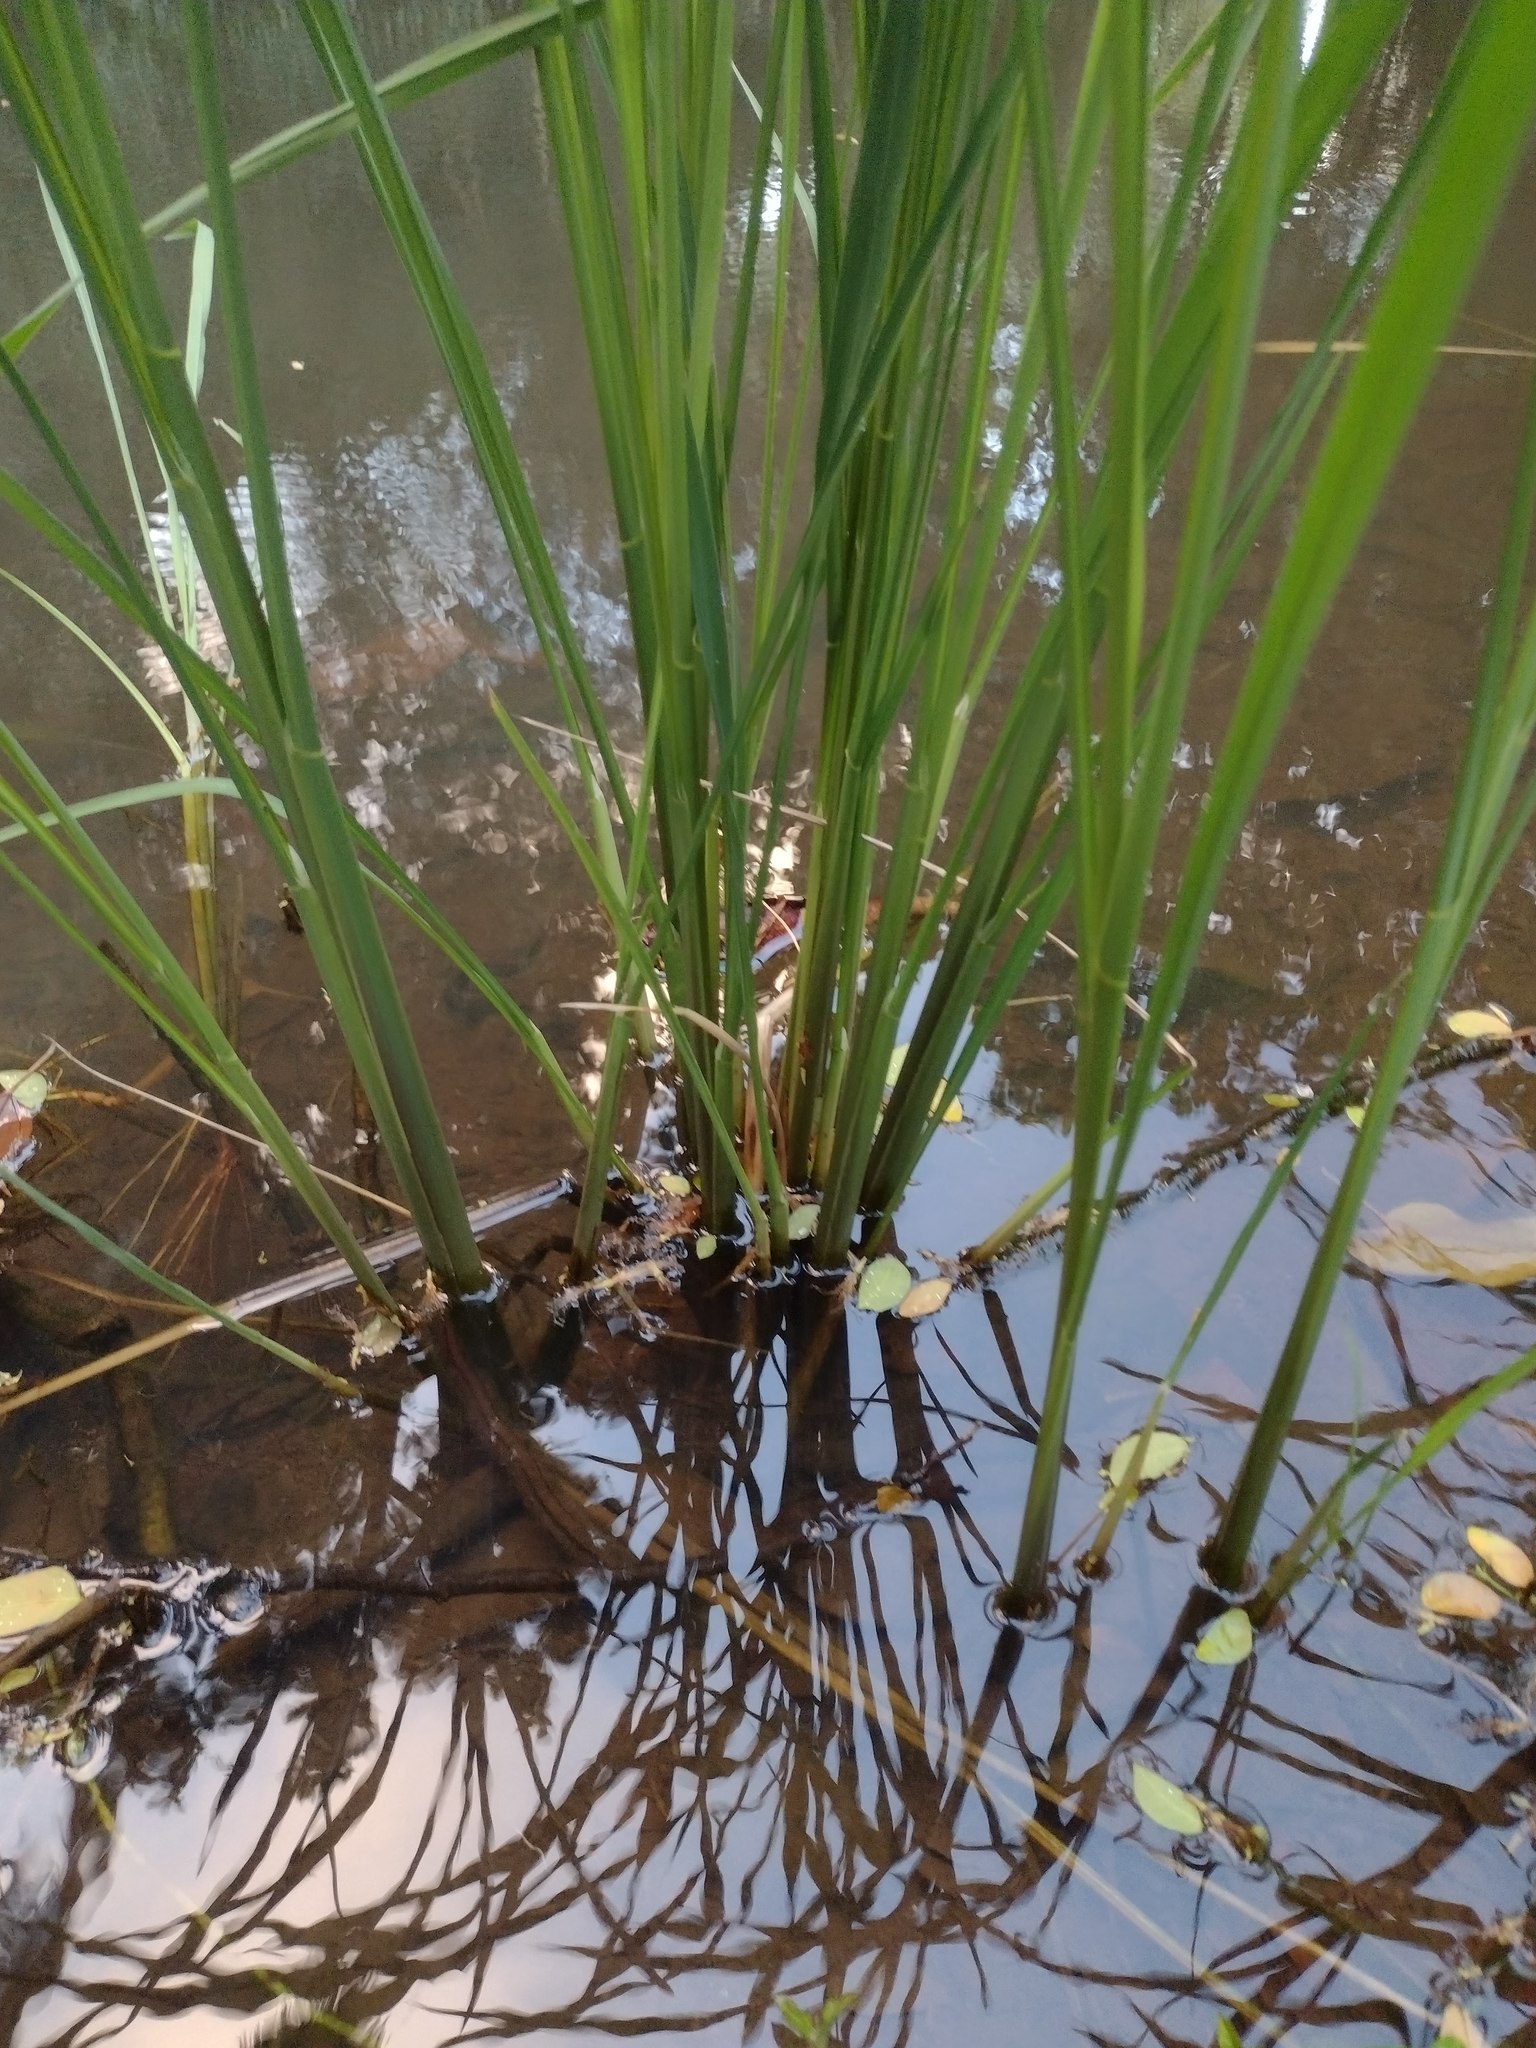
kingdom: Plantae
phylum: Tracheophyta
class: Liliopsida
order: Poales
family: Poaceae
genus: Zizania
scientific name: Zizania latifolia
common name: Manchurian wildrice
